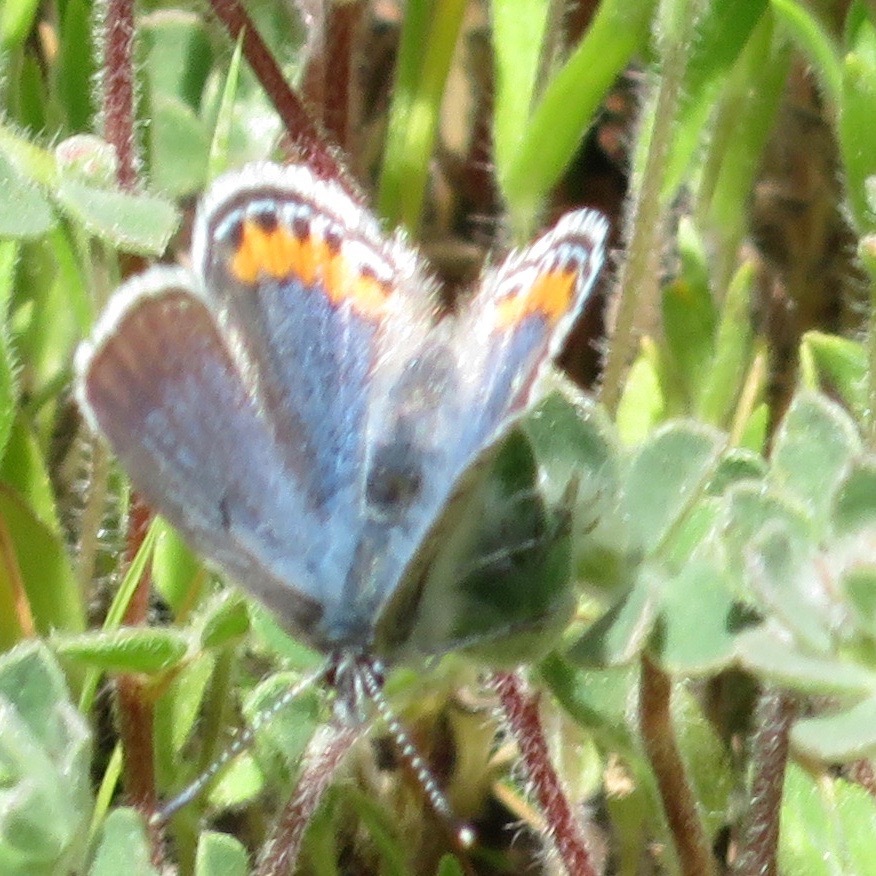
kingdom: Animalia
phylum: Arthropoda
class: Insecta
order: Lepidoptera
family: Lycaenidae
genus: Icaricia
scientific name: Icaricia acmon
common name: Acmon blue
